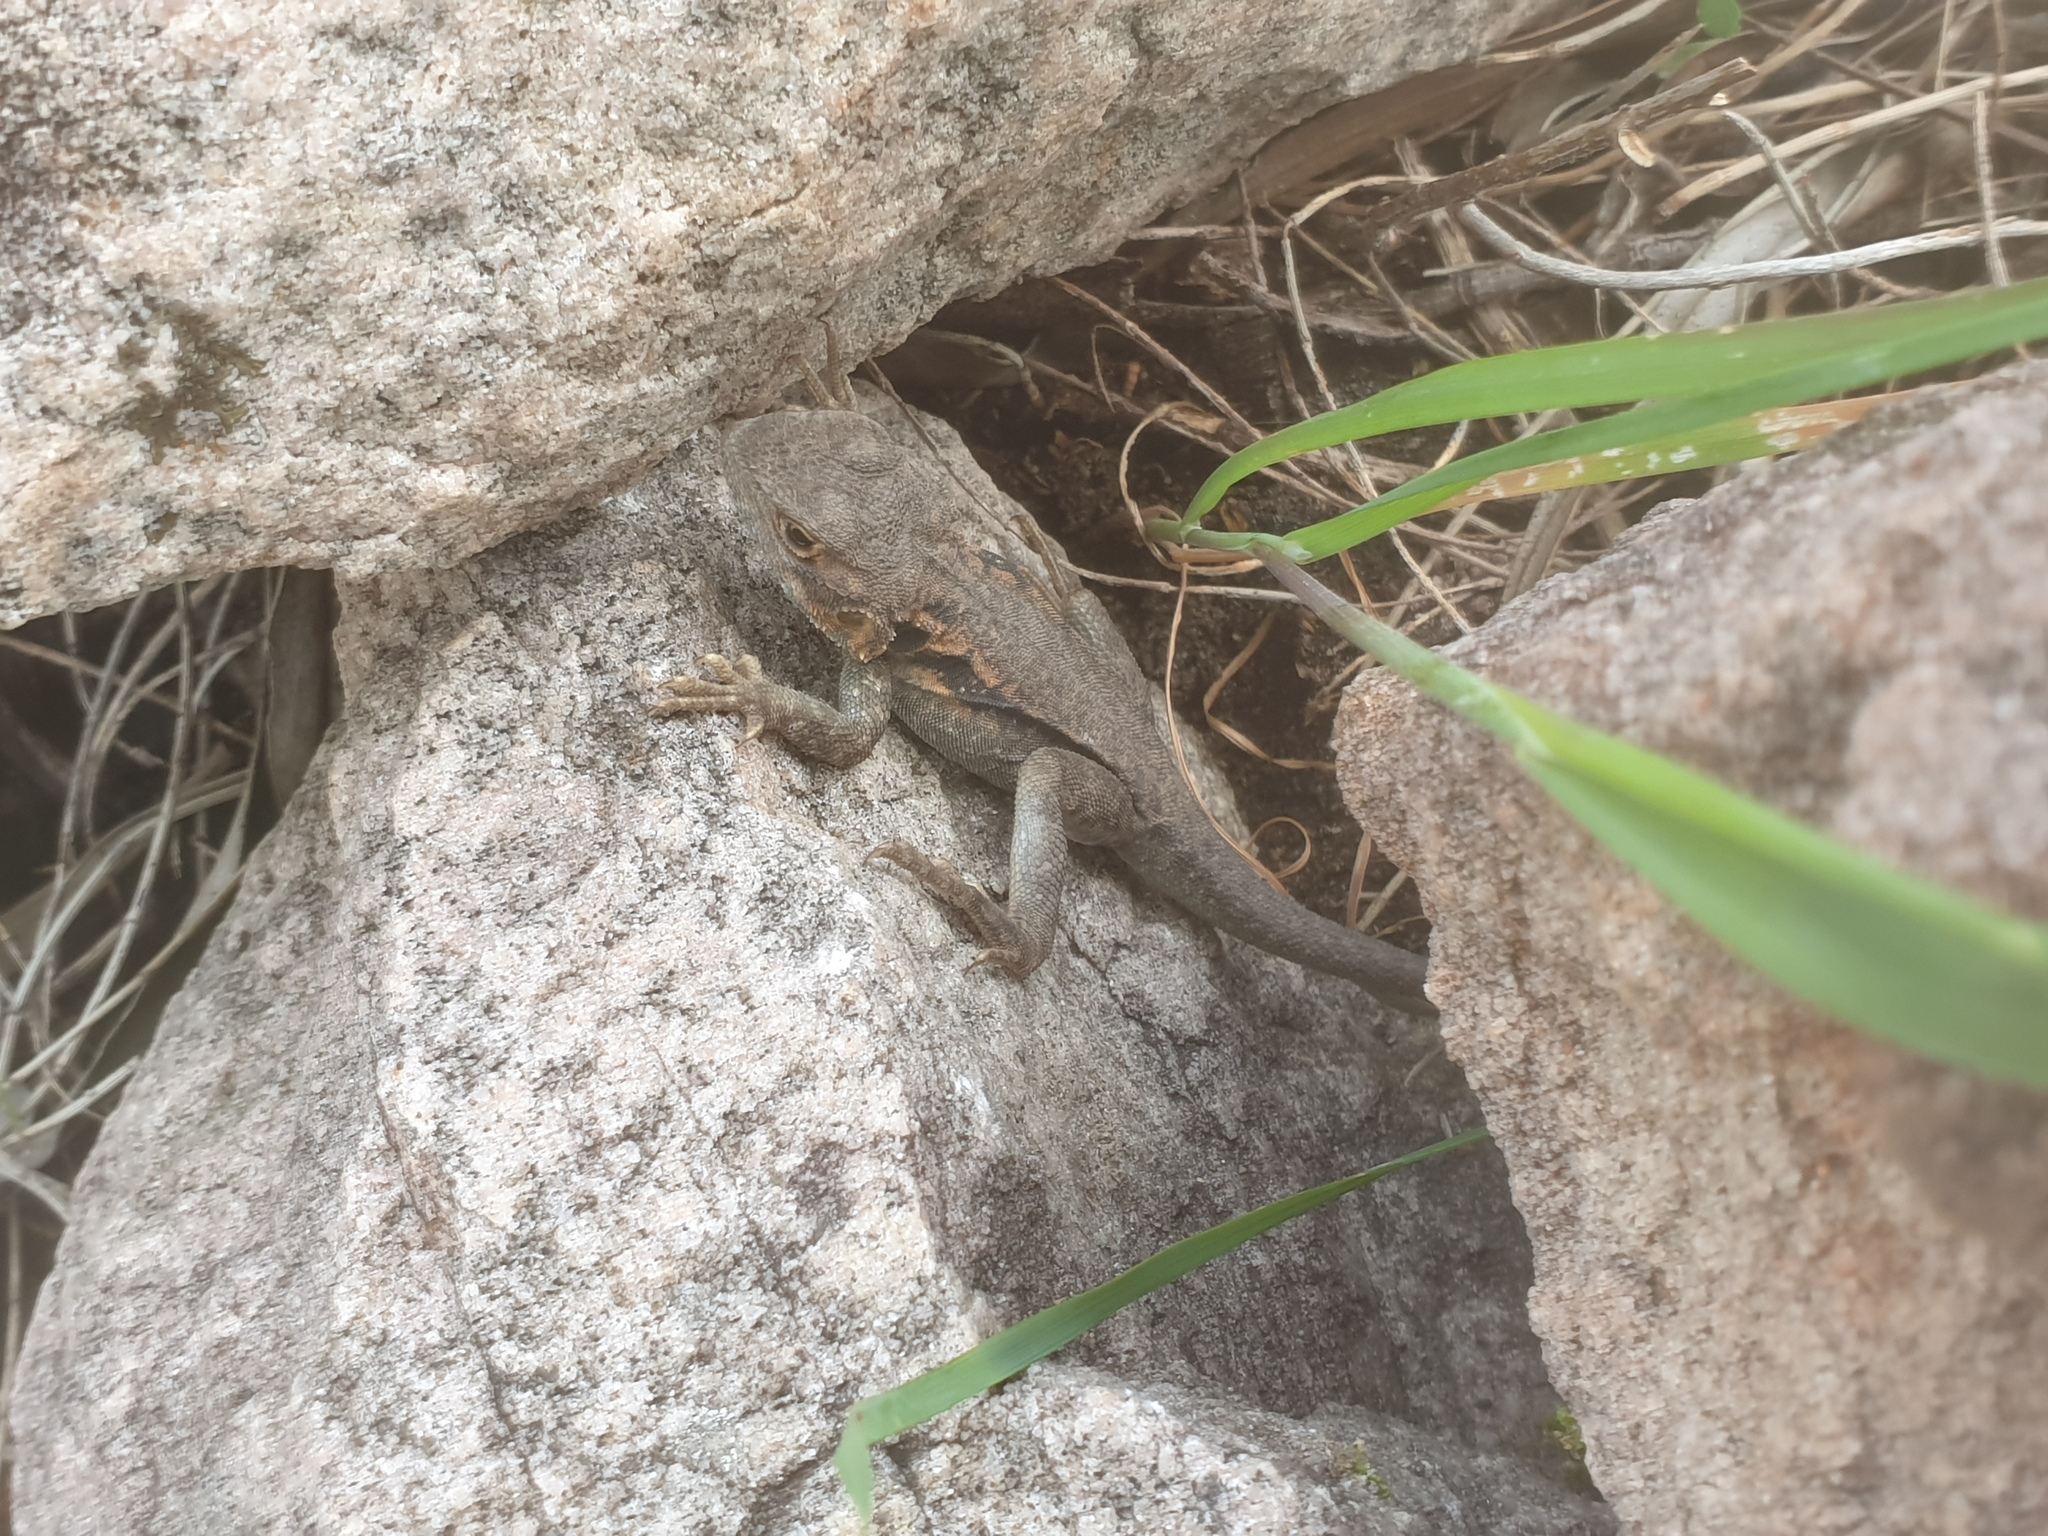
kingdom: Animalia
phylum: Chordata
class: Squamata
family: Agamidae
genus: Ctenophorus
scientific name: Ctenophorus decresii
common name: Tawny dragon
